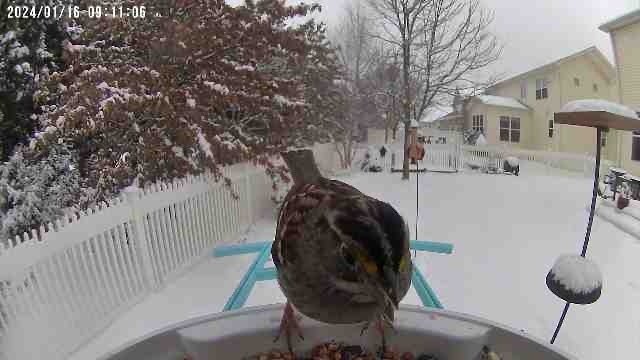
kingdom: Animalia
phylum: Chordata
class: Aves
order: Passeriformes
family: Passerellidae
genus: Zonotrichia
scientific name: Zonotrichia albicollis
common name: White-throated sparrow
